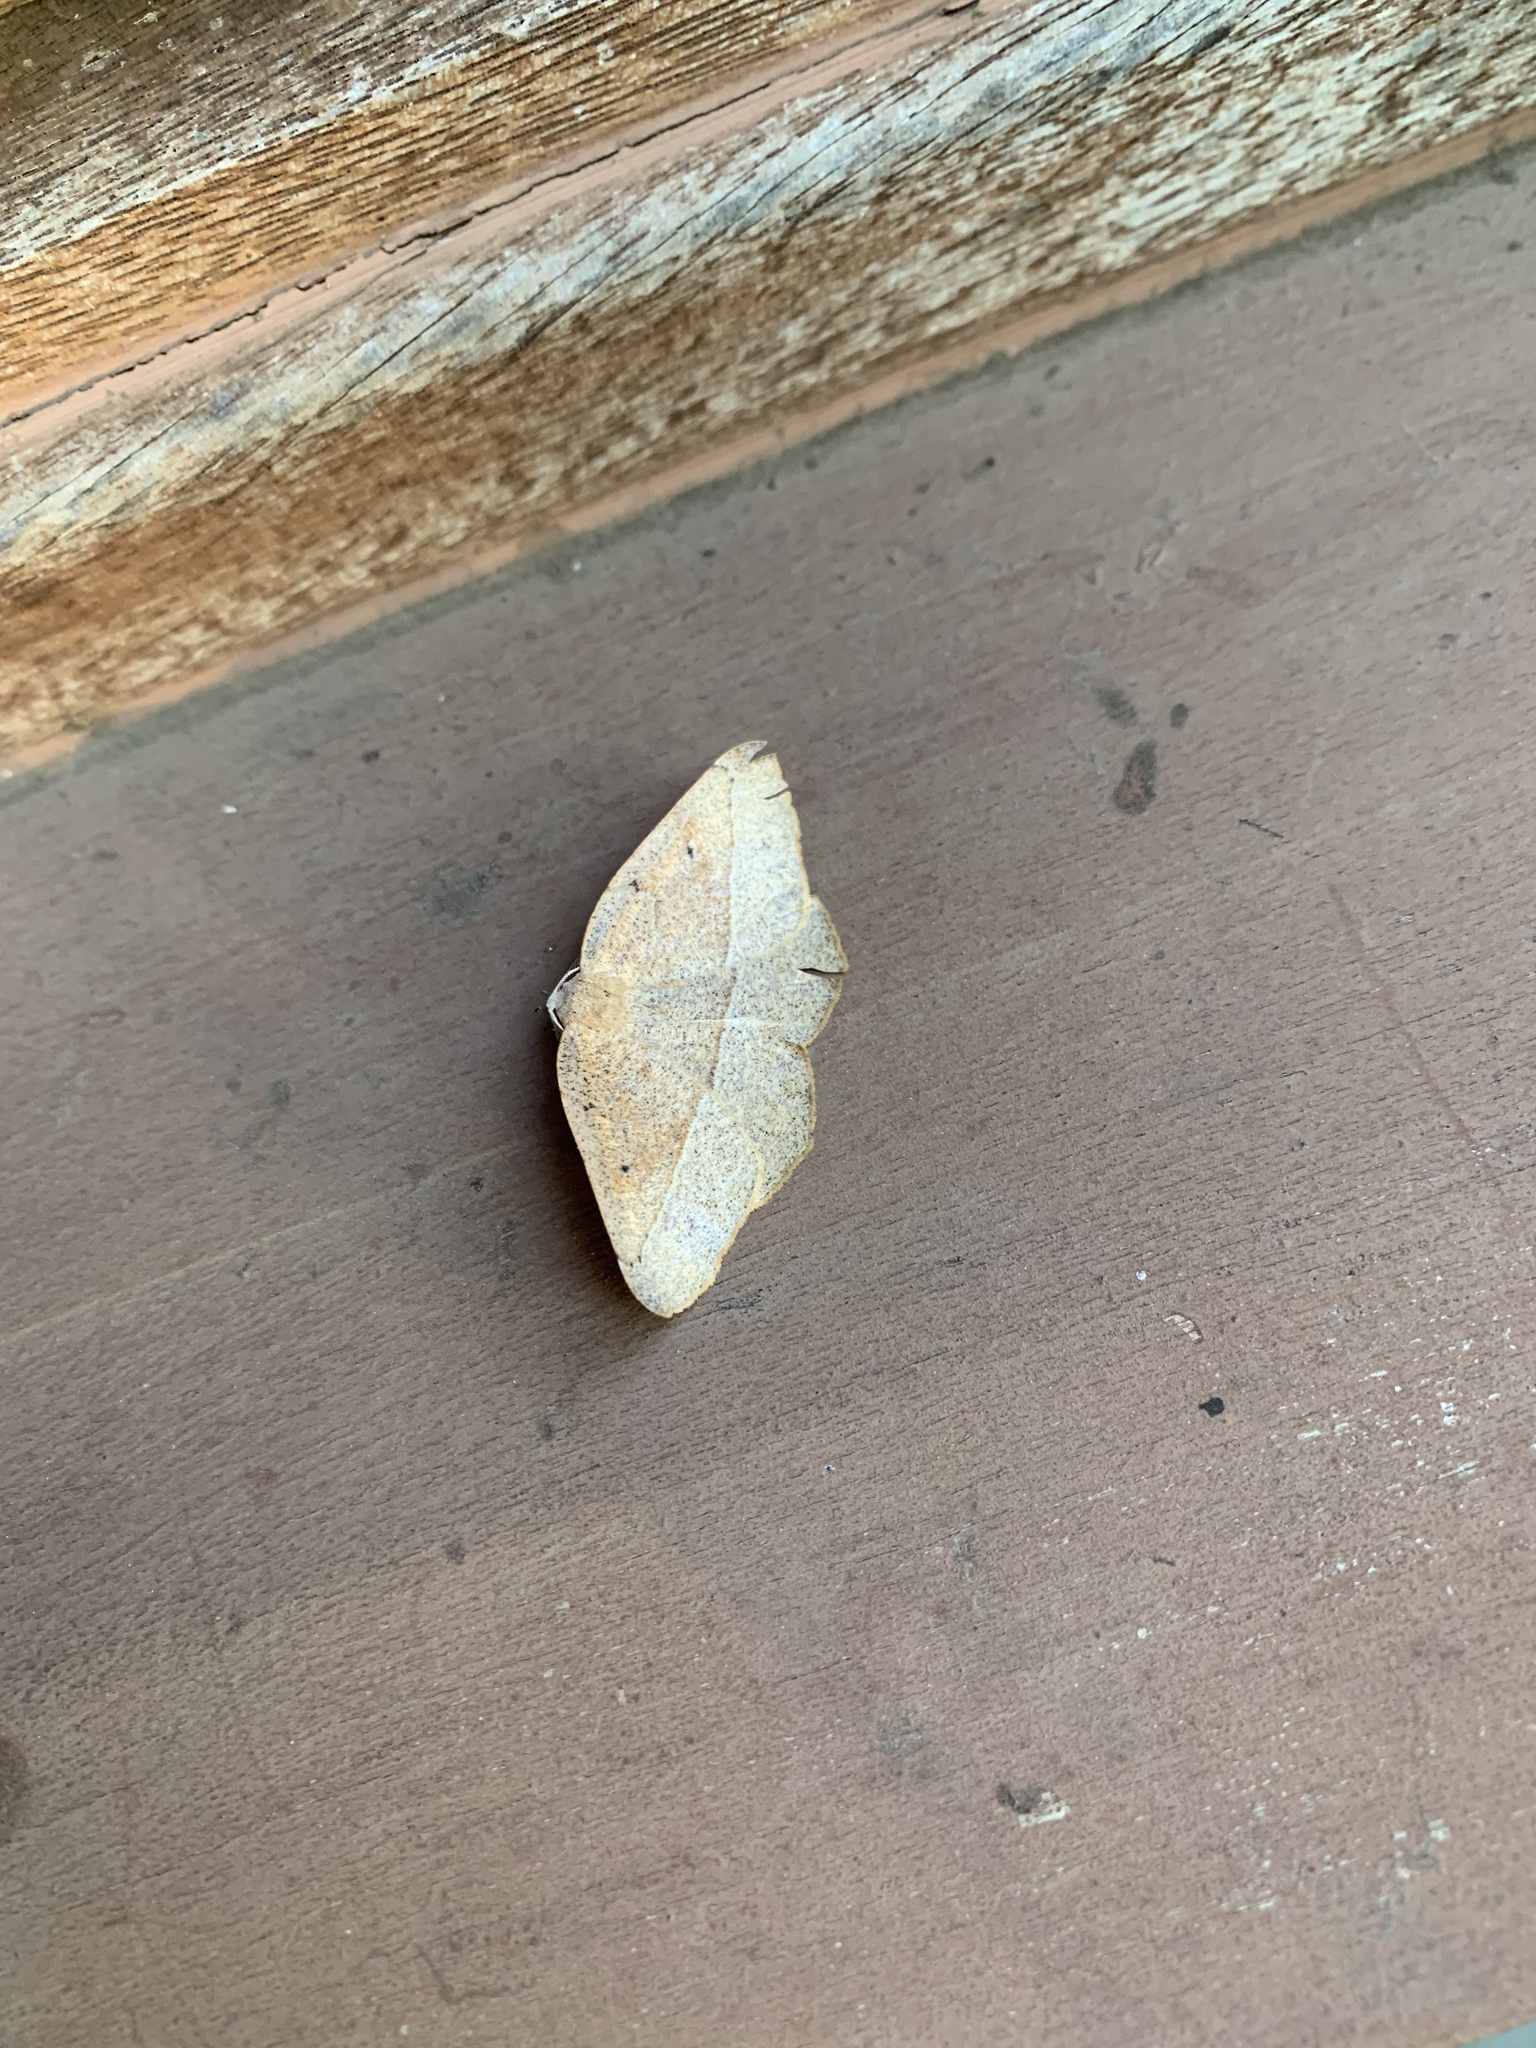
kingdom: Animalia
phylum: Arthropoda
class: Insecta
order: Lepidoptera
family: Geometridae
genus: Syncirsodes
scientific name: Syncirsodes primata
